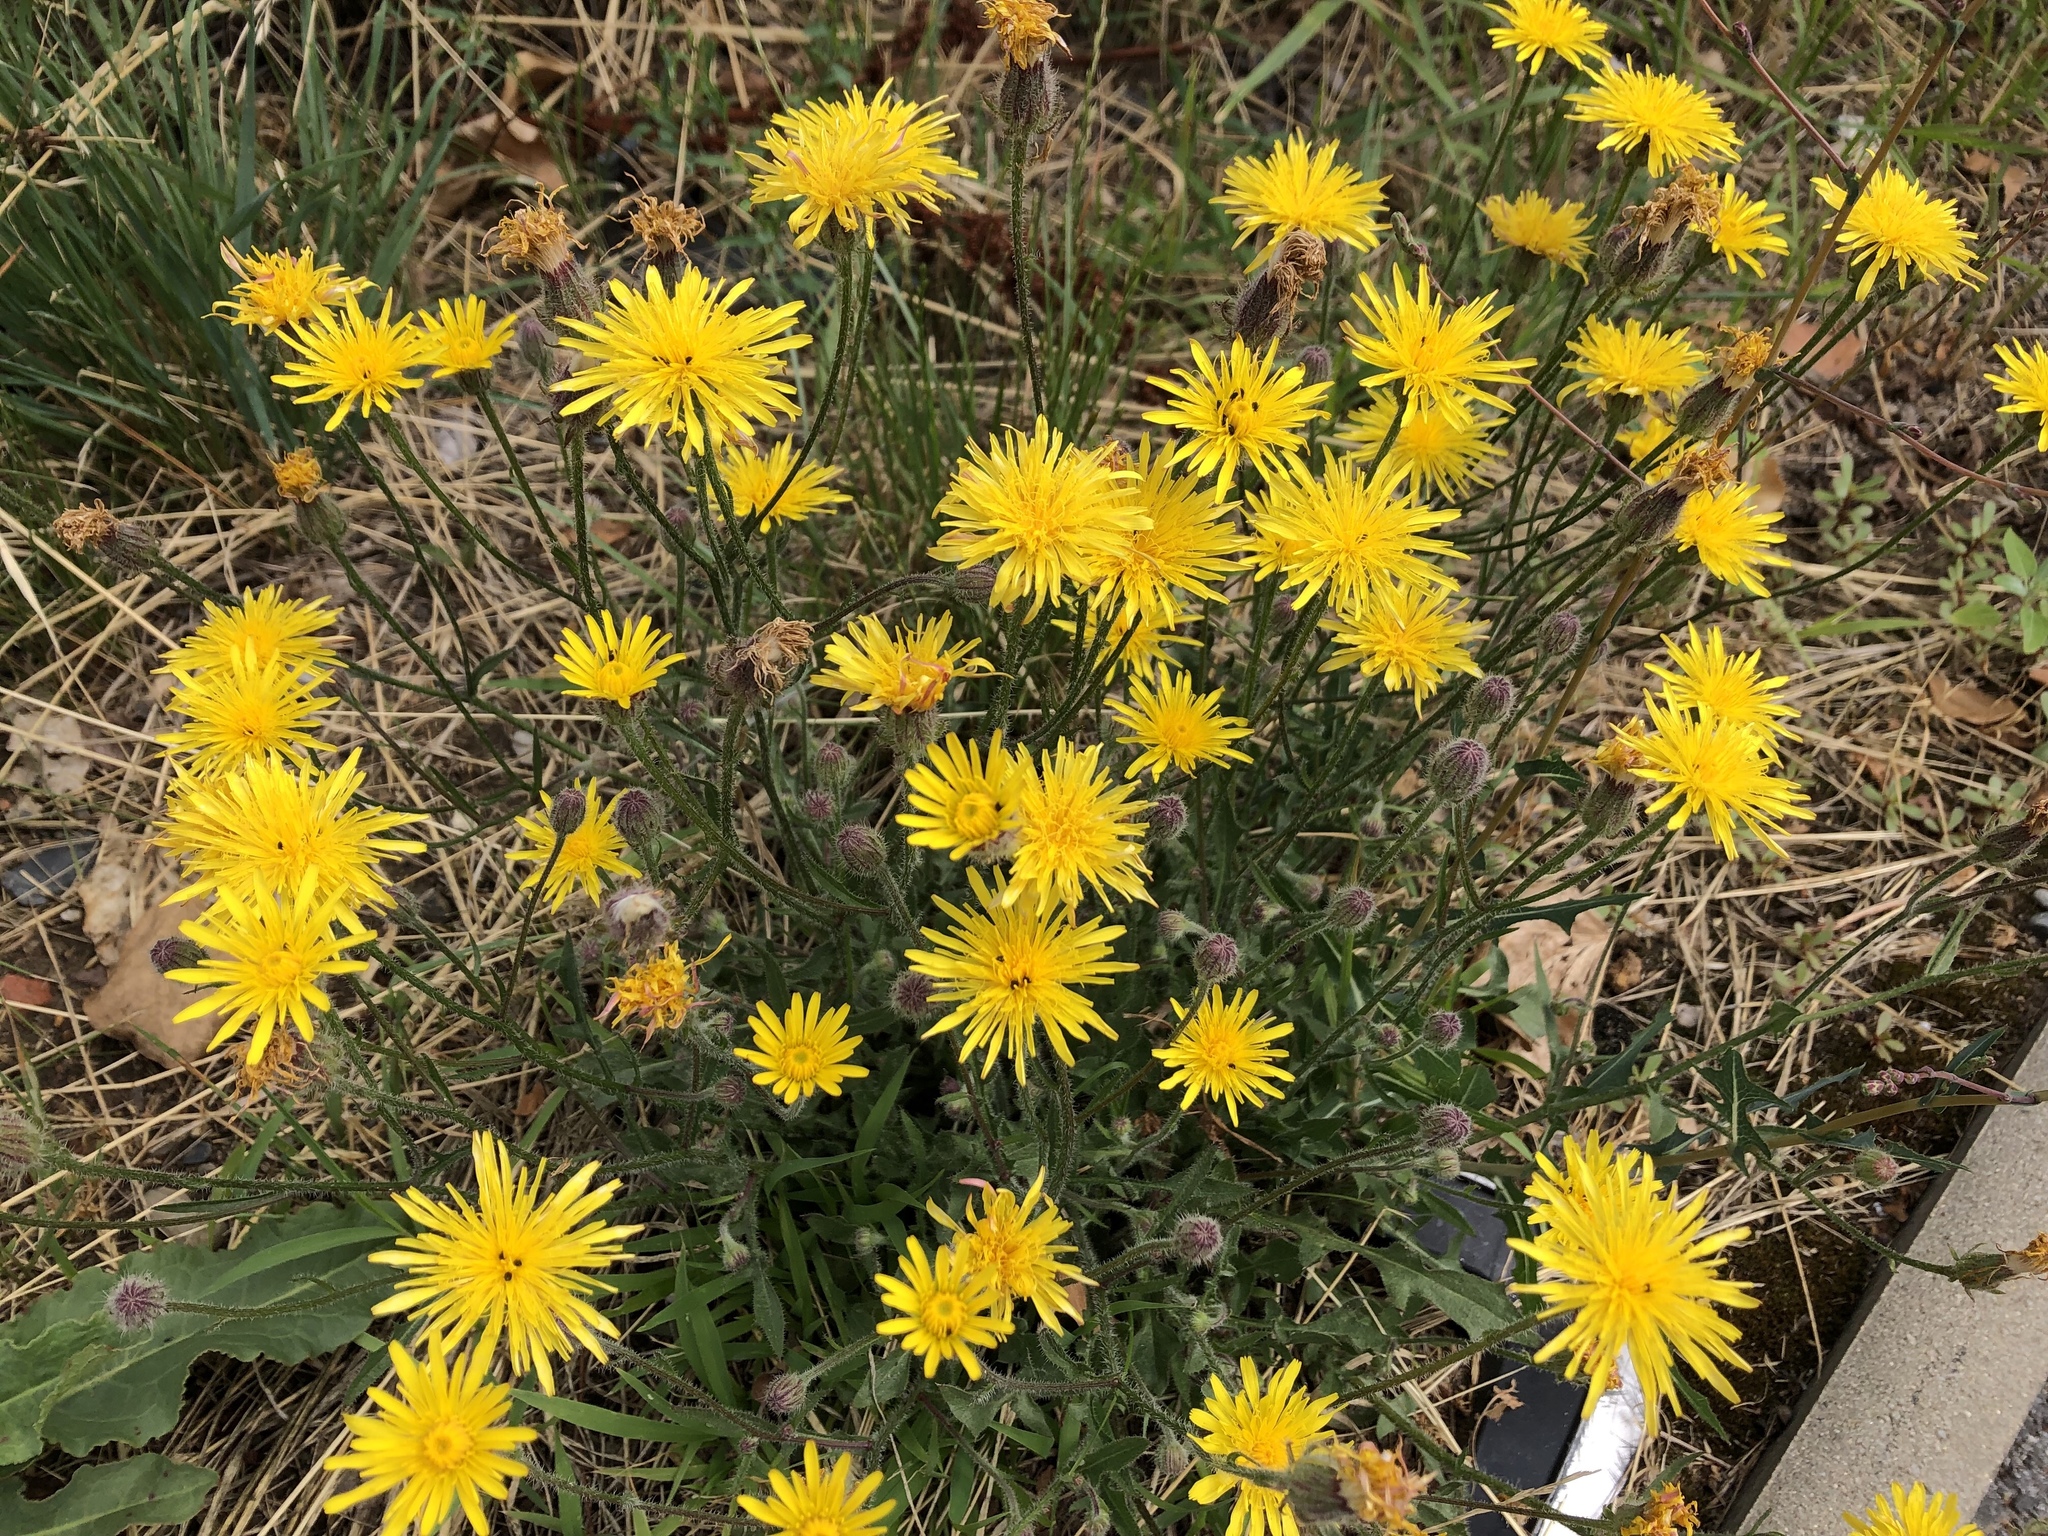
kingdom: Plantae
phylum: Tracheophyta
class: Magnoliopsida
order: Asterales
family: Asteraceae
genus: Crepis
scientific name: Crepis foetida
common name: Stinking hawk's-beard
